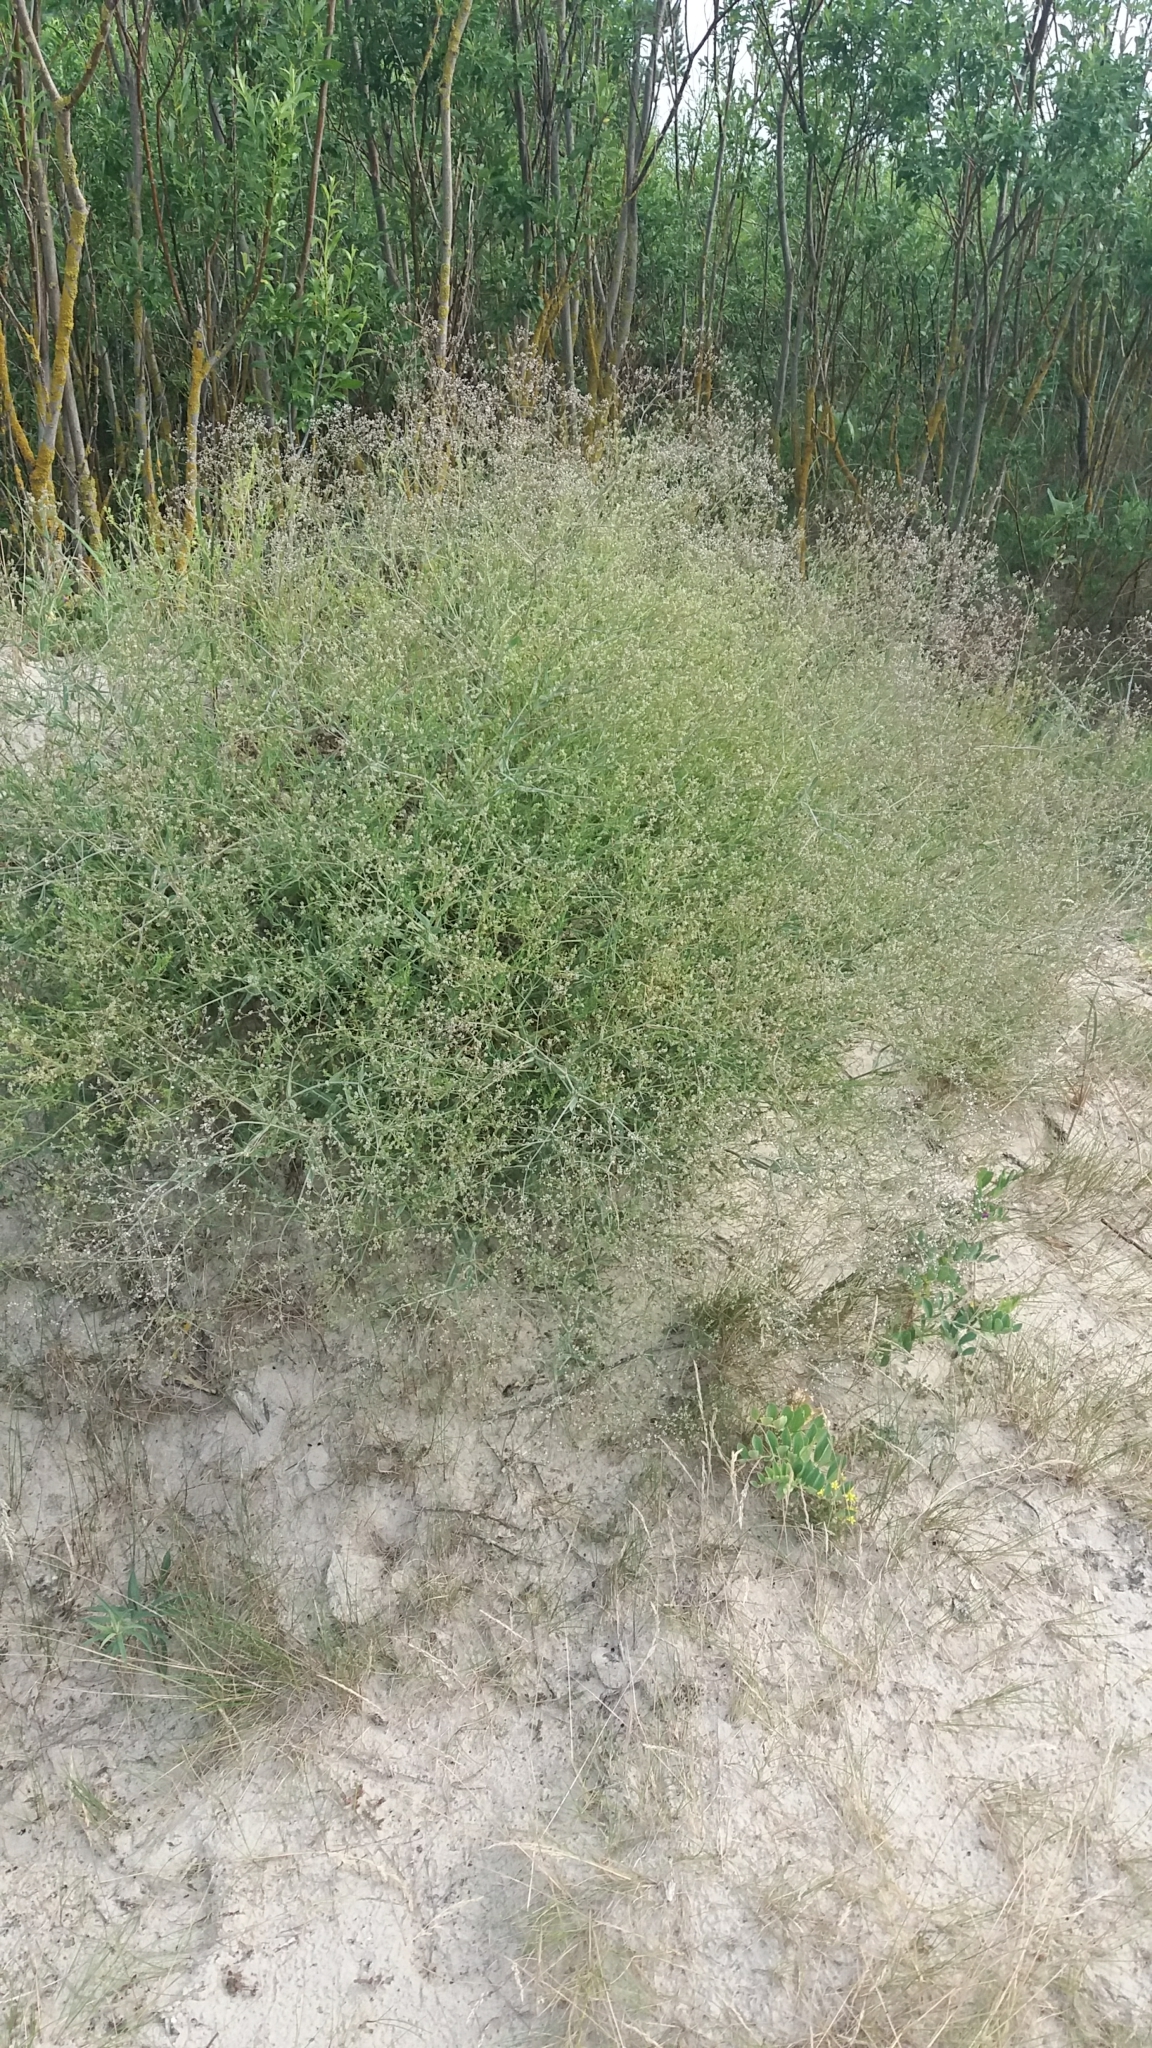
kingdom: Plantae
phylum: Tracheophyta
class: Magnoliopsida
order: Caryophyllales
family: Caryophyllaceae
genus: Gypsophila
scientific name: Gypsophila paniculata
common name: Baby's-breath
